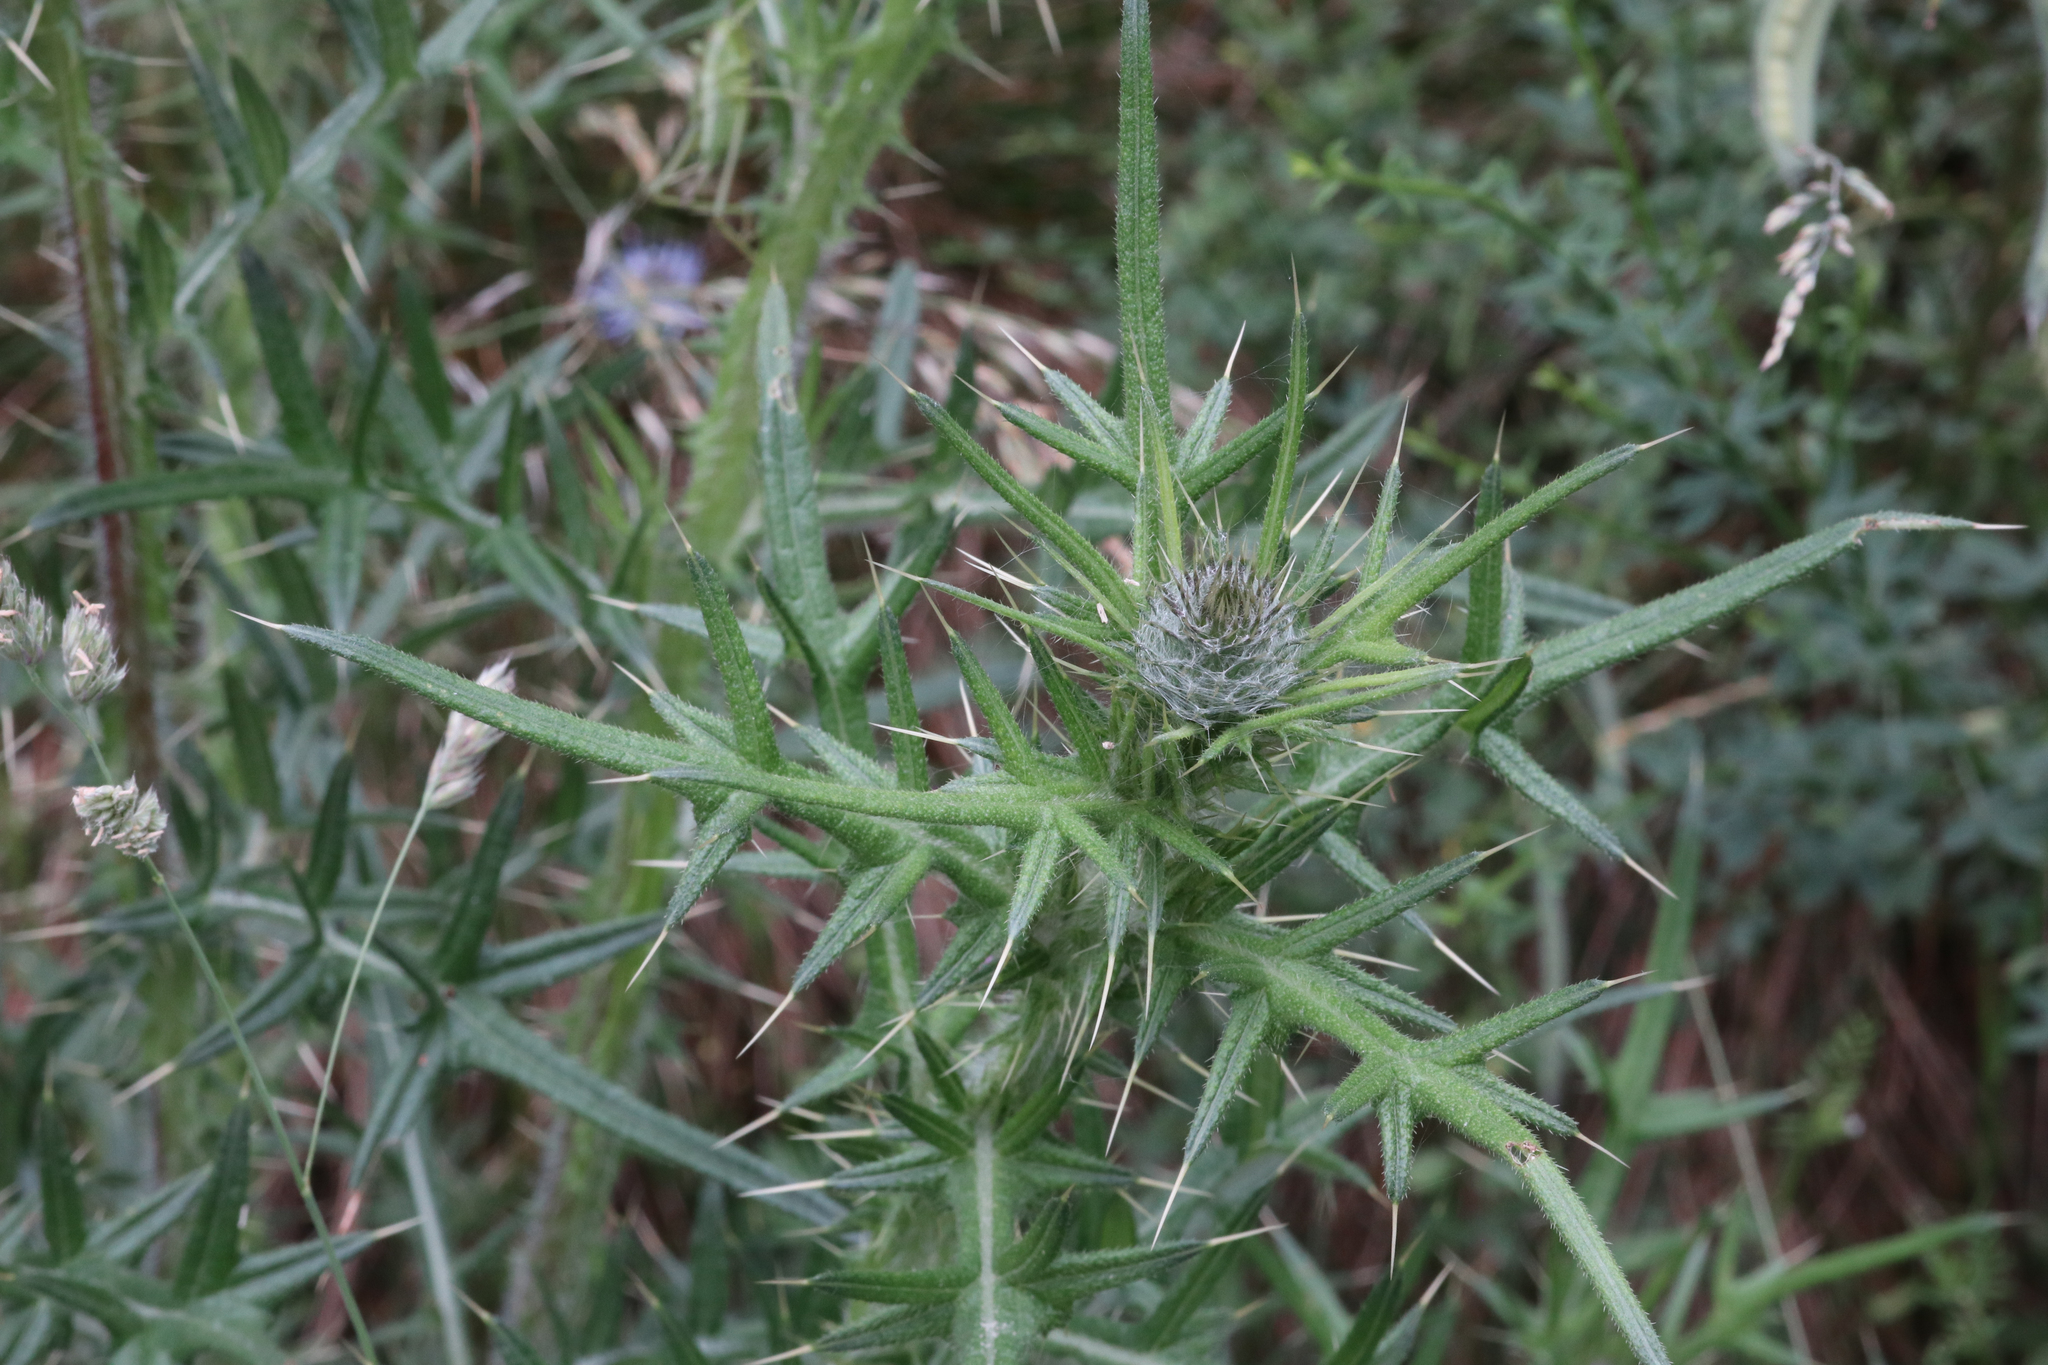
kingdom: Plantae
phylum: Tracheophyta
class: Magnoliopsida
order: Asterales
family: Asteraceae
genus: Cirsium
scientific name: Cirsium vulgare
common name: Bull thistle
